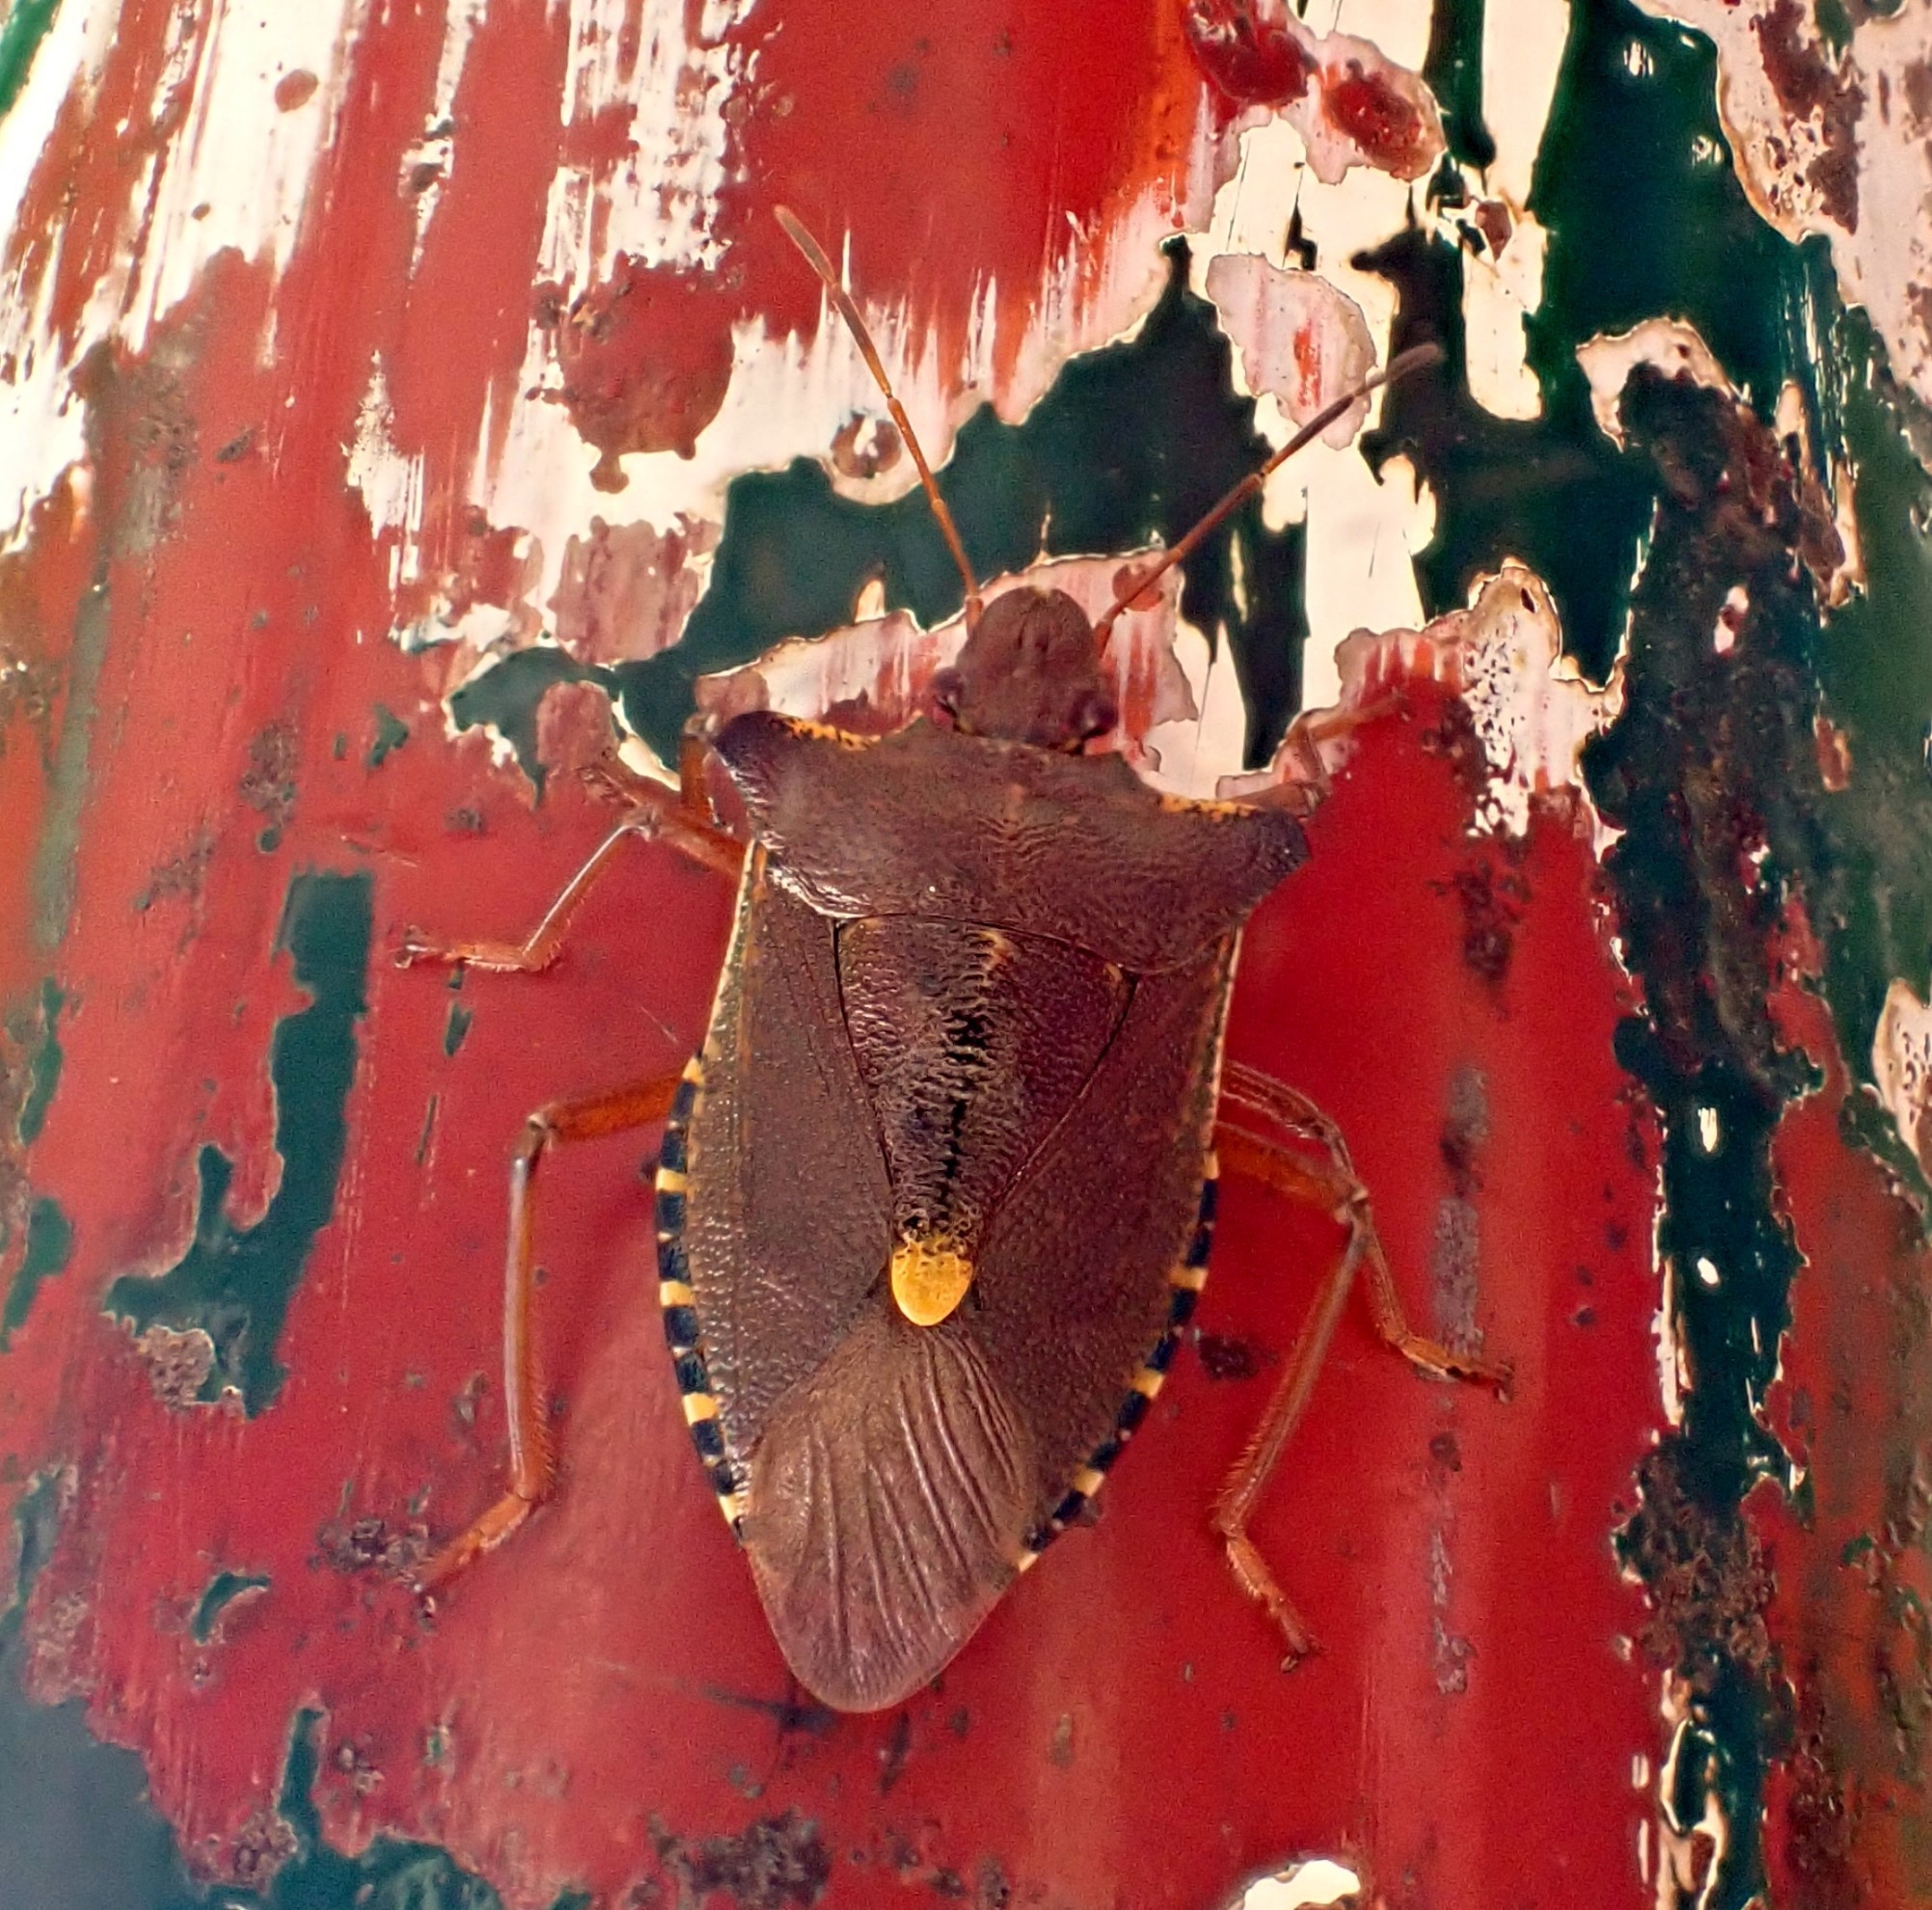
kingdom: Animalia
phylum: Arthropoda
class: Insecta
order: Hemiptera
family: Pentatomidae
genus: Pentatoma
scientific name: Pentatoma rufipes
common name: Forest bug
